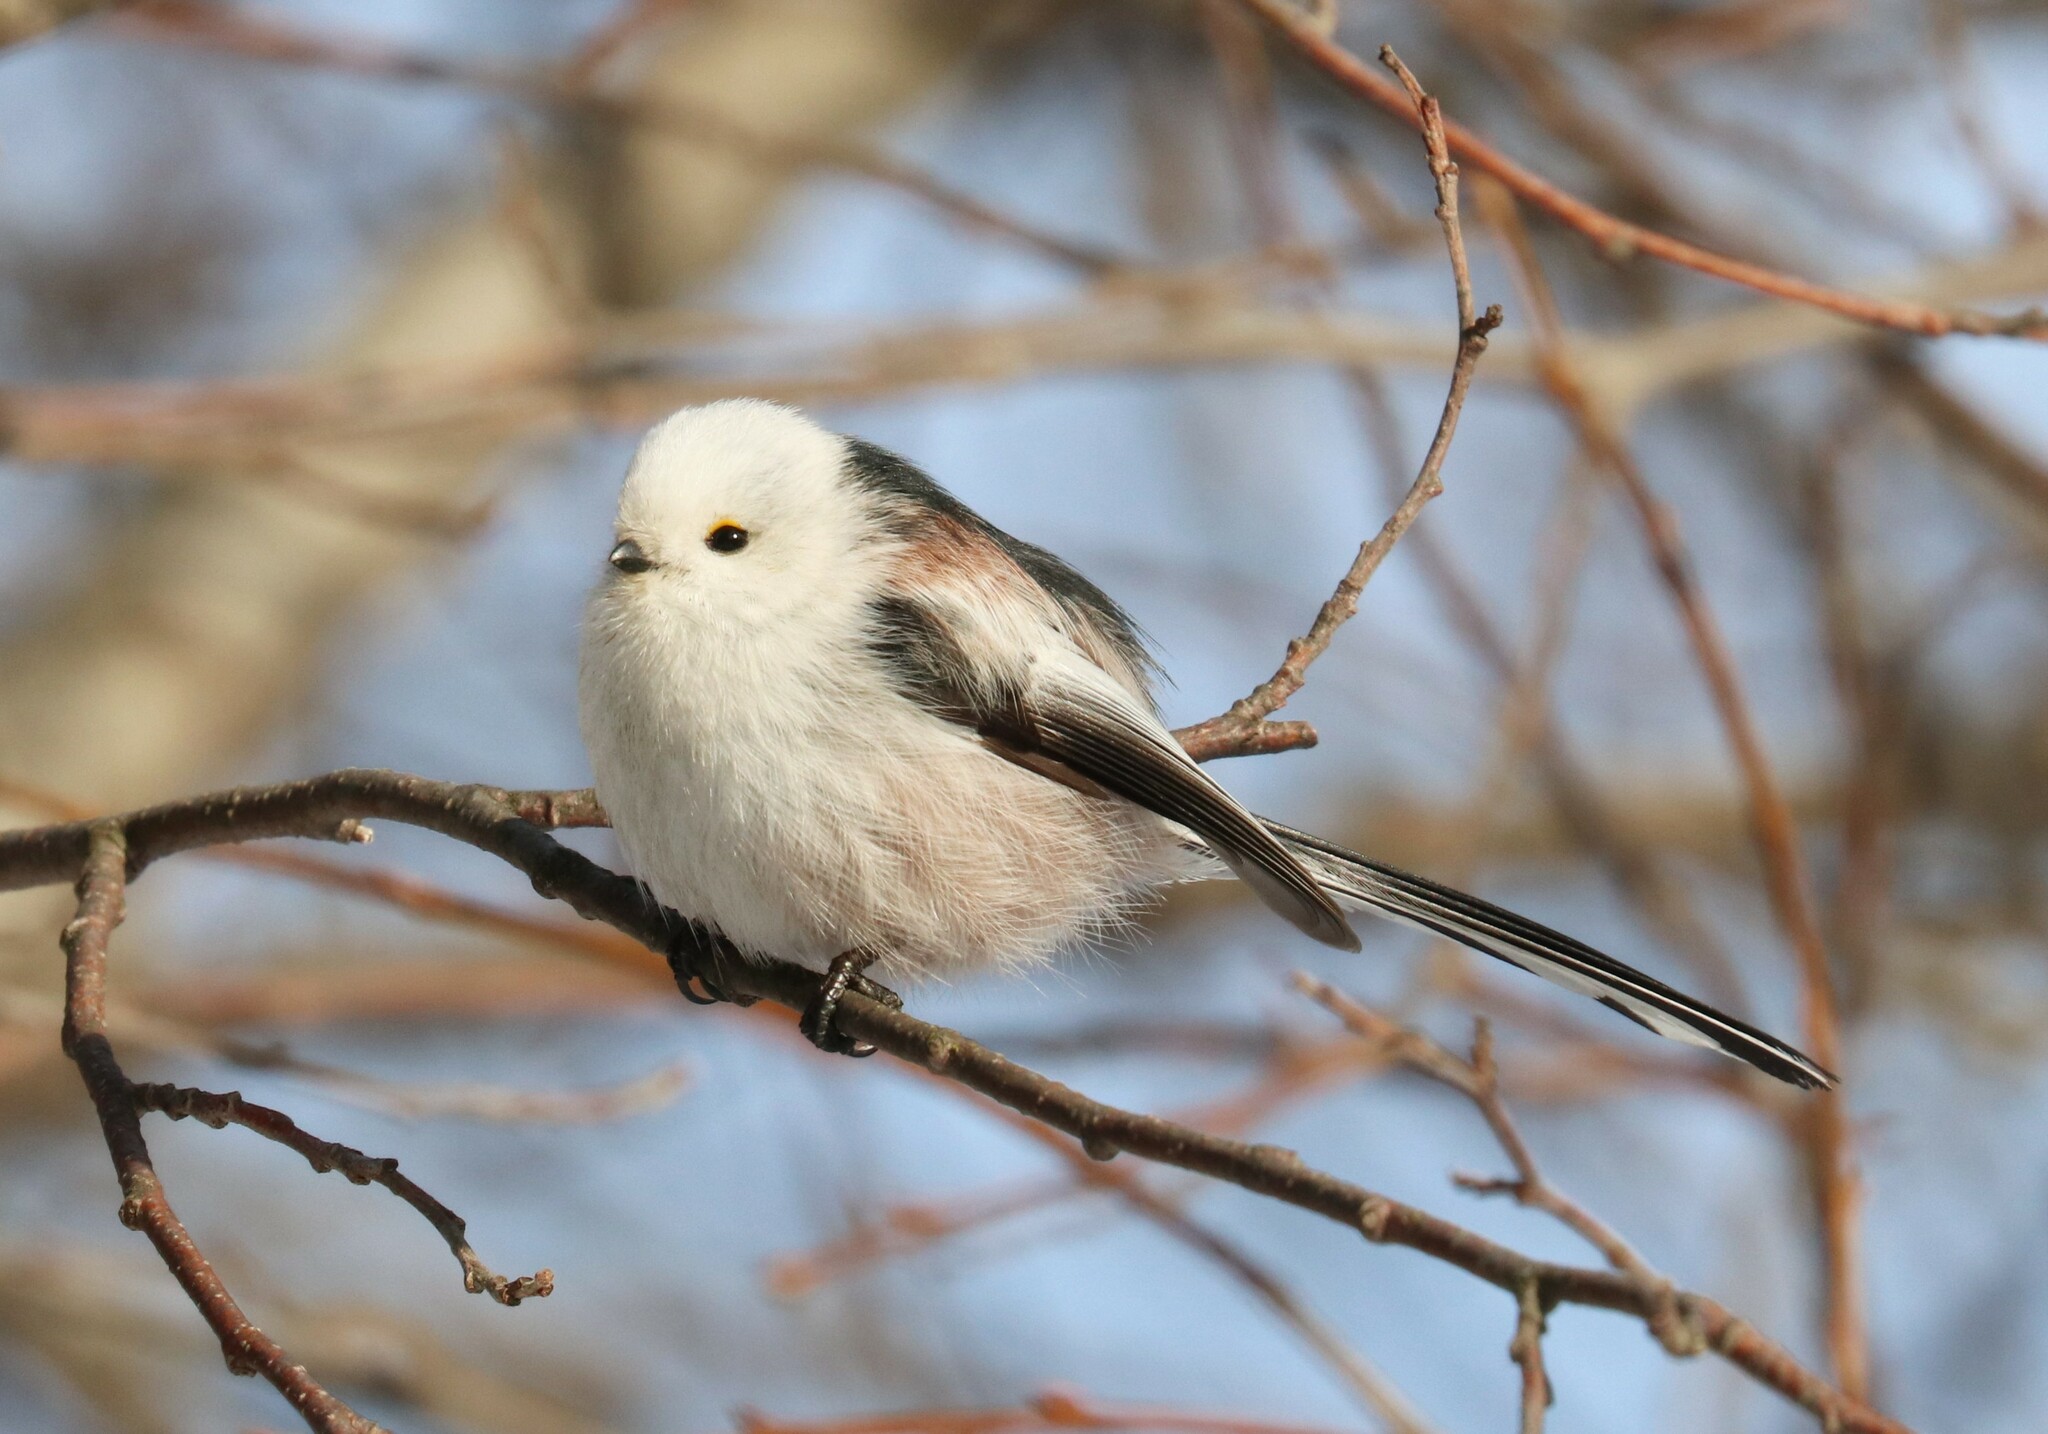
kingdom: Animalia
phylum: Chordata
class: Aves
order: Passeriformes
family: Aegithalidae
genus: Aegithalos
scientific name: Aegithalos caudatus
